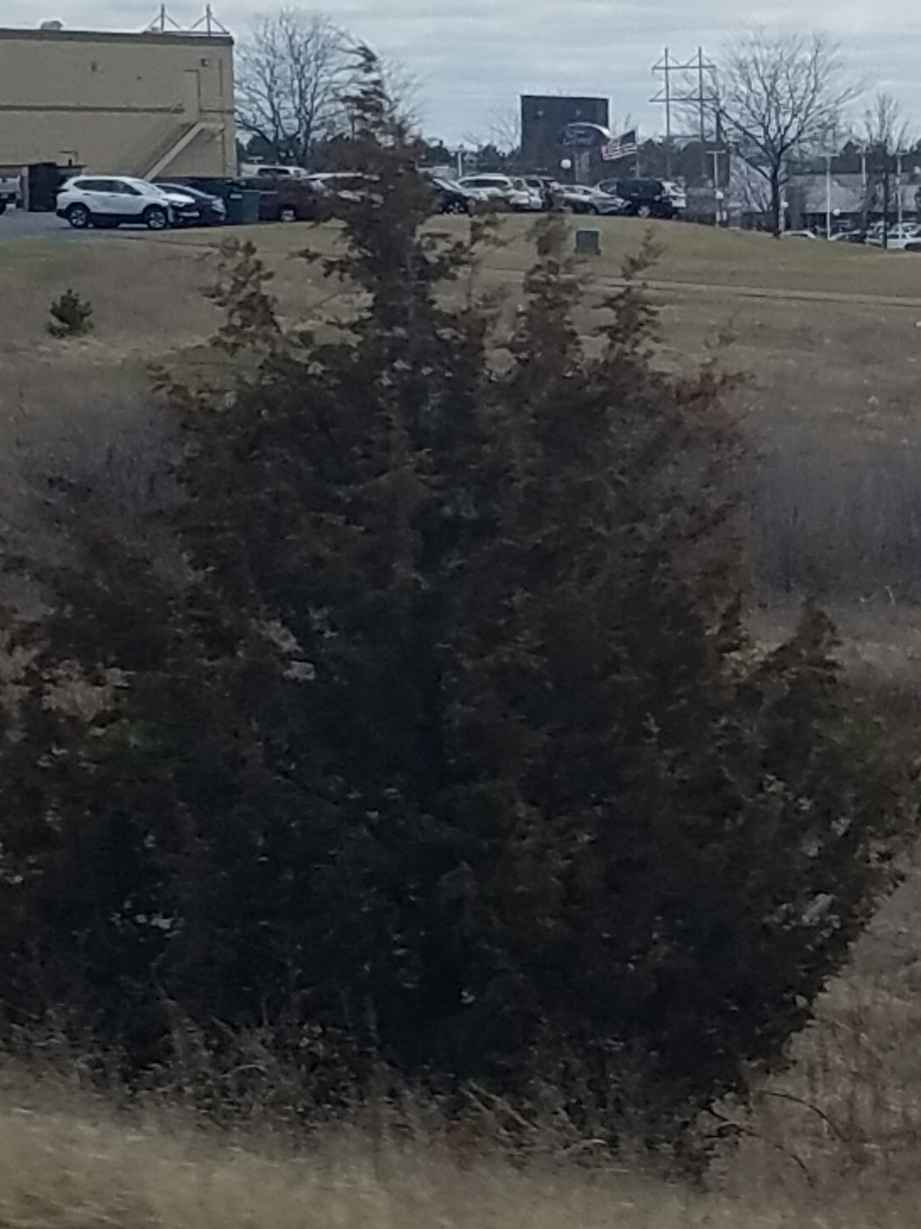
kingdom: Plantae
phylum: Tracheophyta
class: Pinopsida
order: Pinales
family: Cupressaceae
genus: Juniperus
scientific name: Juniperus virginiana
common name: Red juniper
